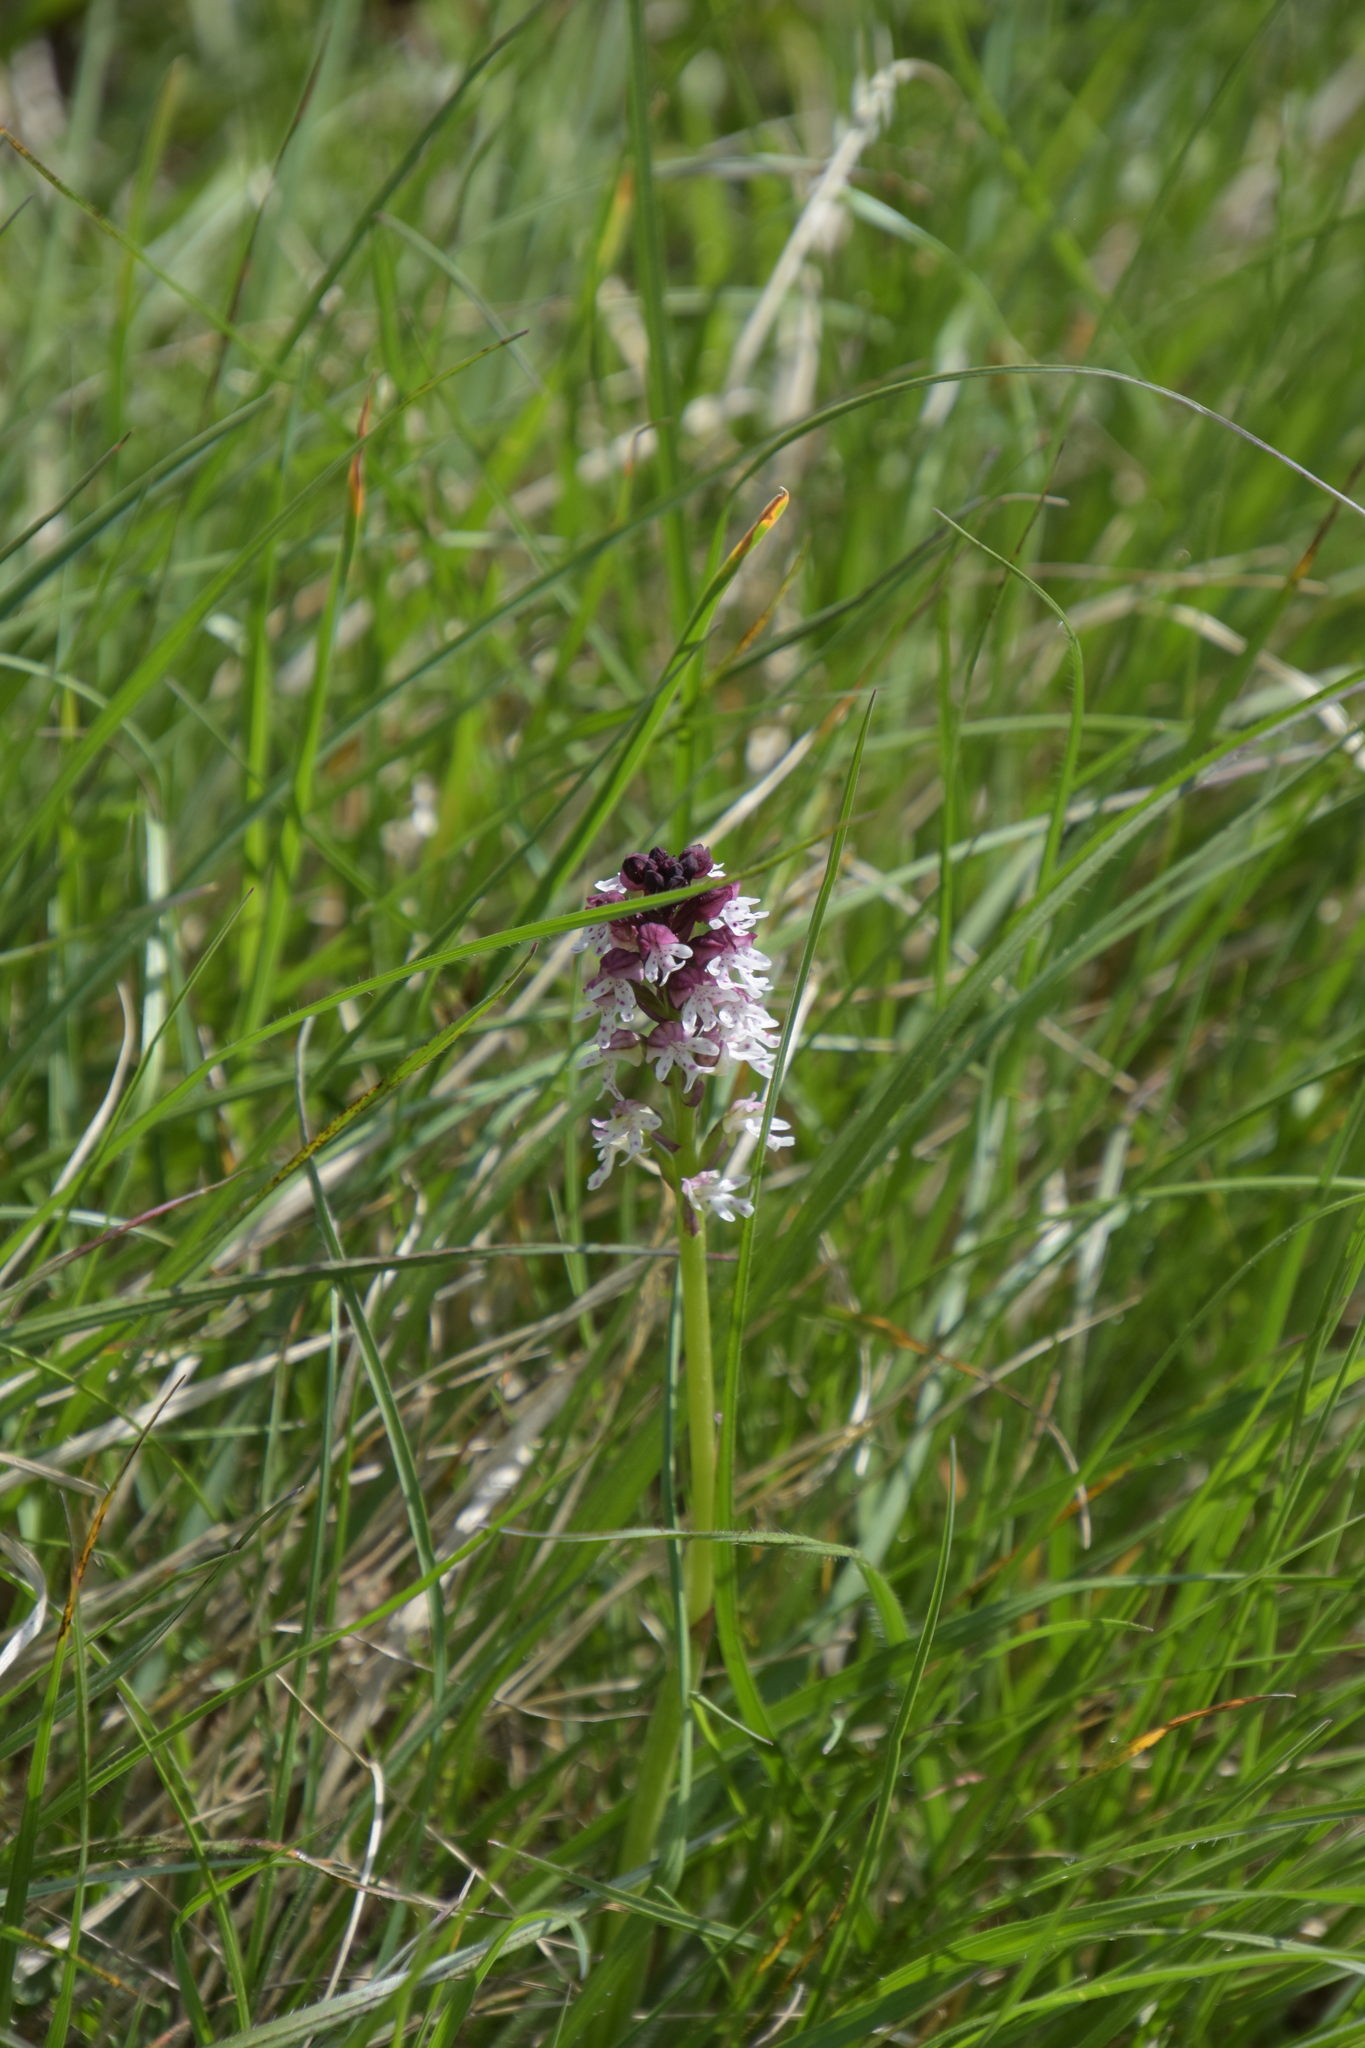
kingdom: Plantae
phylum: Tracheophyta
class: Liliopsida
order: Asparagales
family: Orchidaceae
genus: Neotinea
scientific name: Neotinea ustulata
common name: Burnt orchid
